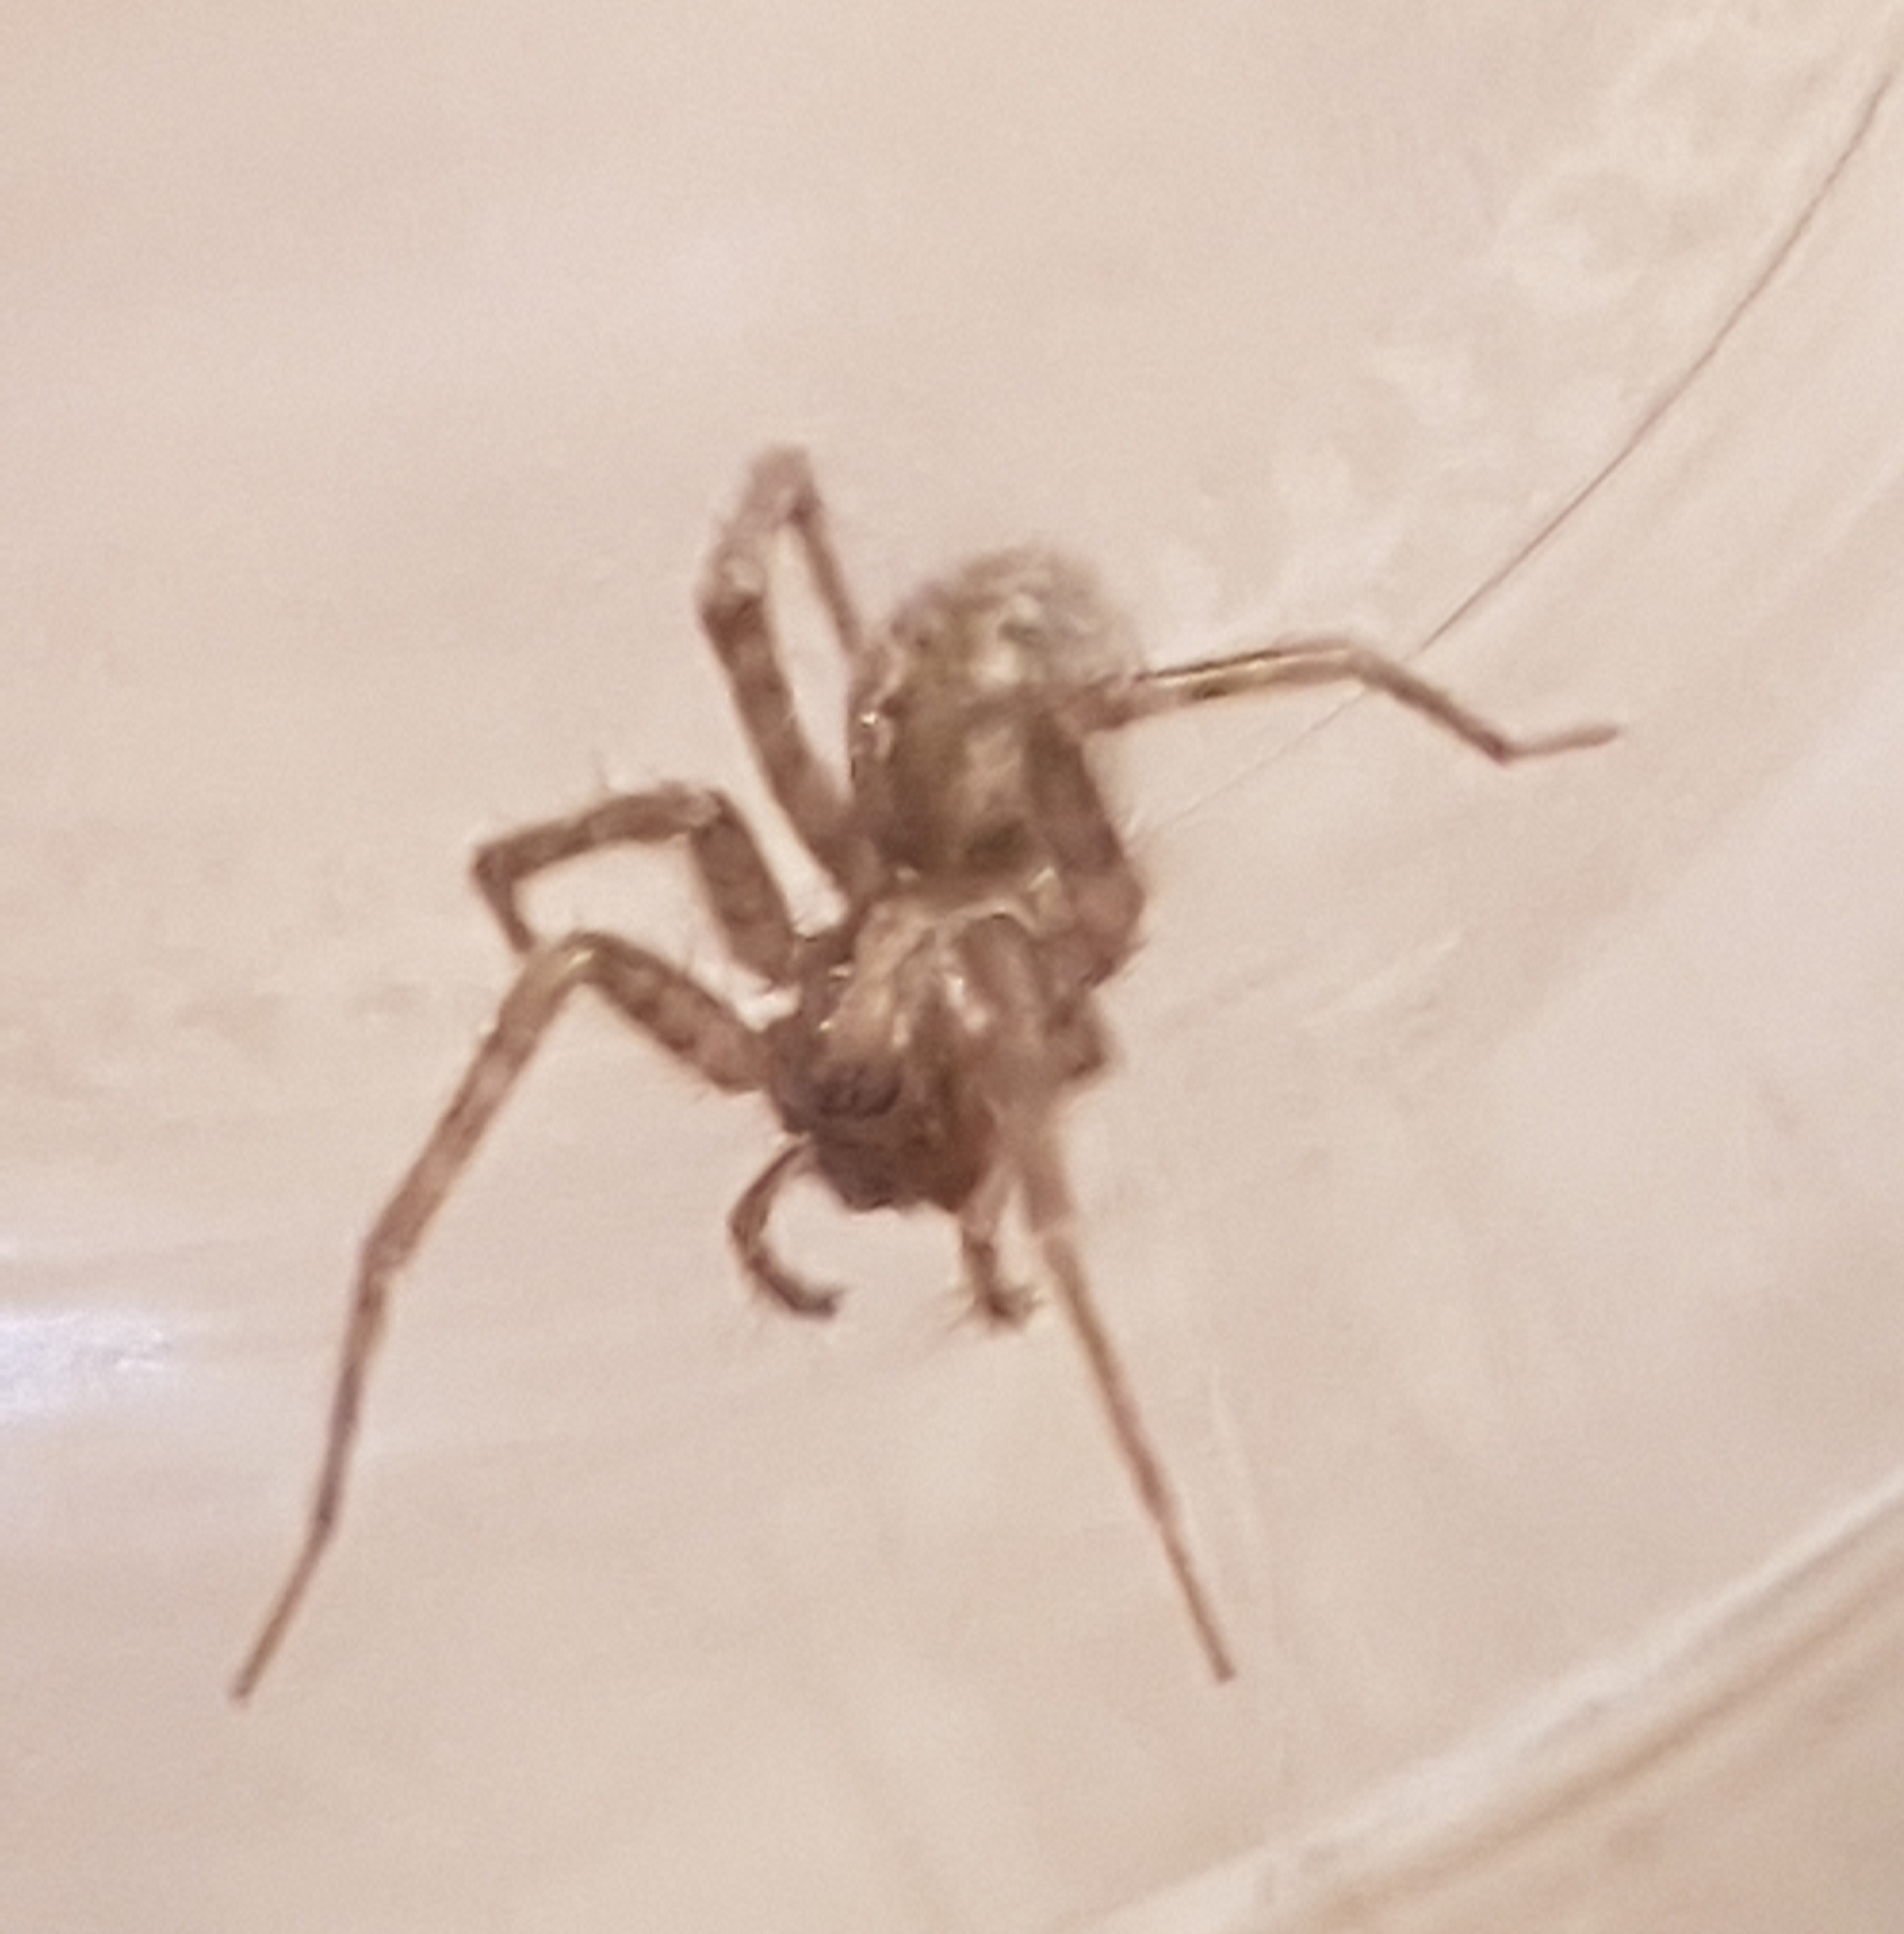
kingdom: Animalia
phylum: Arthropoda
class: Arachnida
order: Araneae
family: Agelenidae
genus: Tegenaria
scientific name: Tegenaria domestica
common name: Barn funnel weaver
